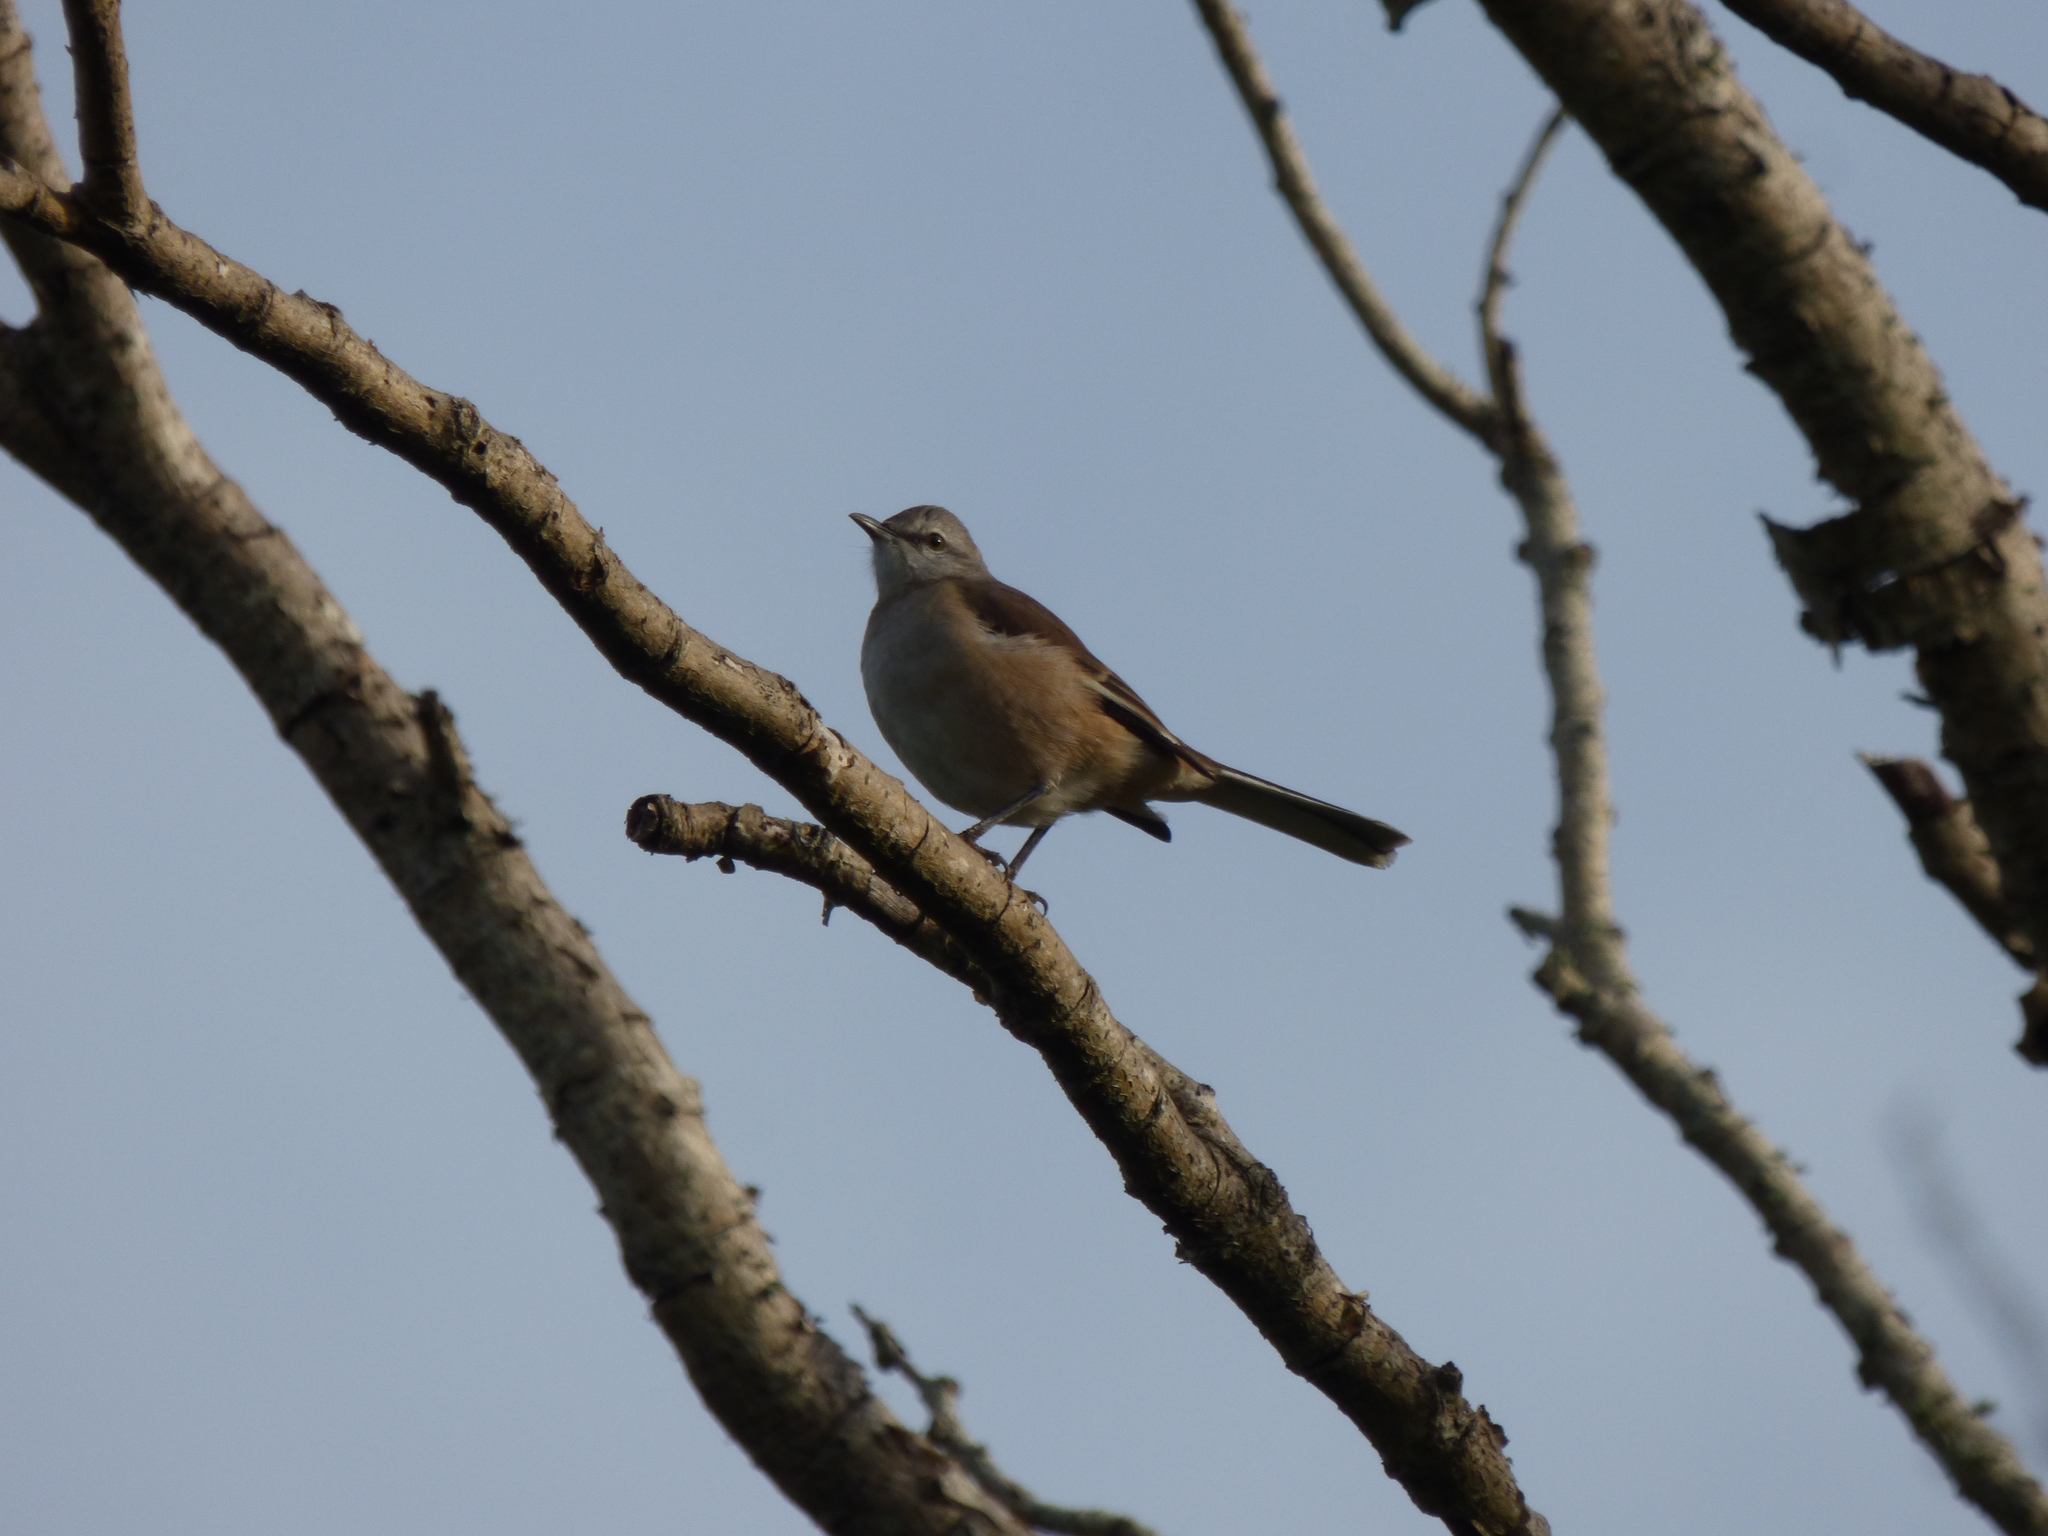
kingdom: Animalia
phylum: Chordata
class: Aves
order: Passeriformes
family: Mimidae
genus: Mimus
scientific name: Mimus triurus
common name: White-banded mockingbird
